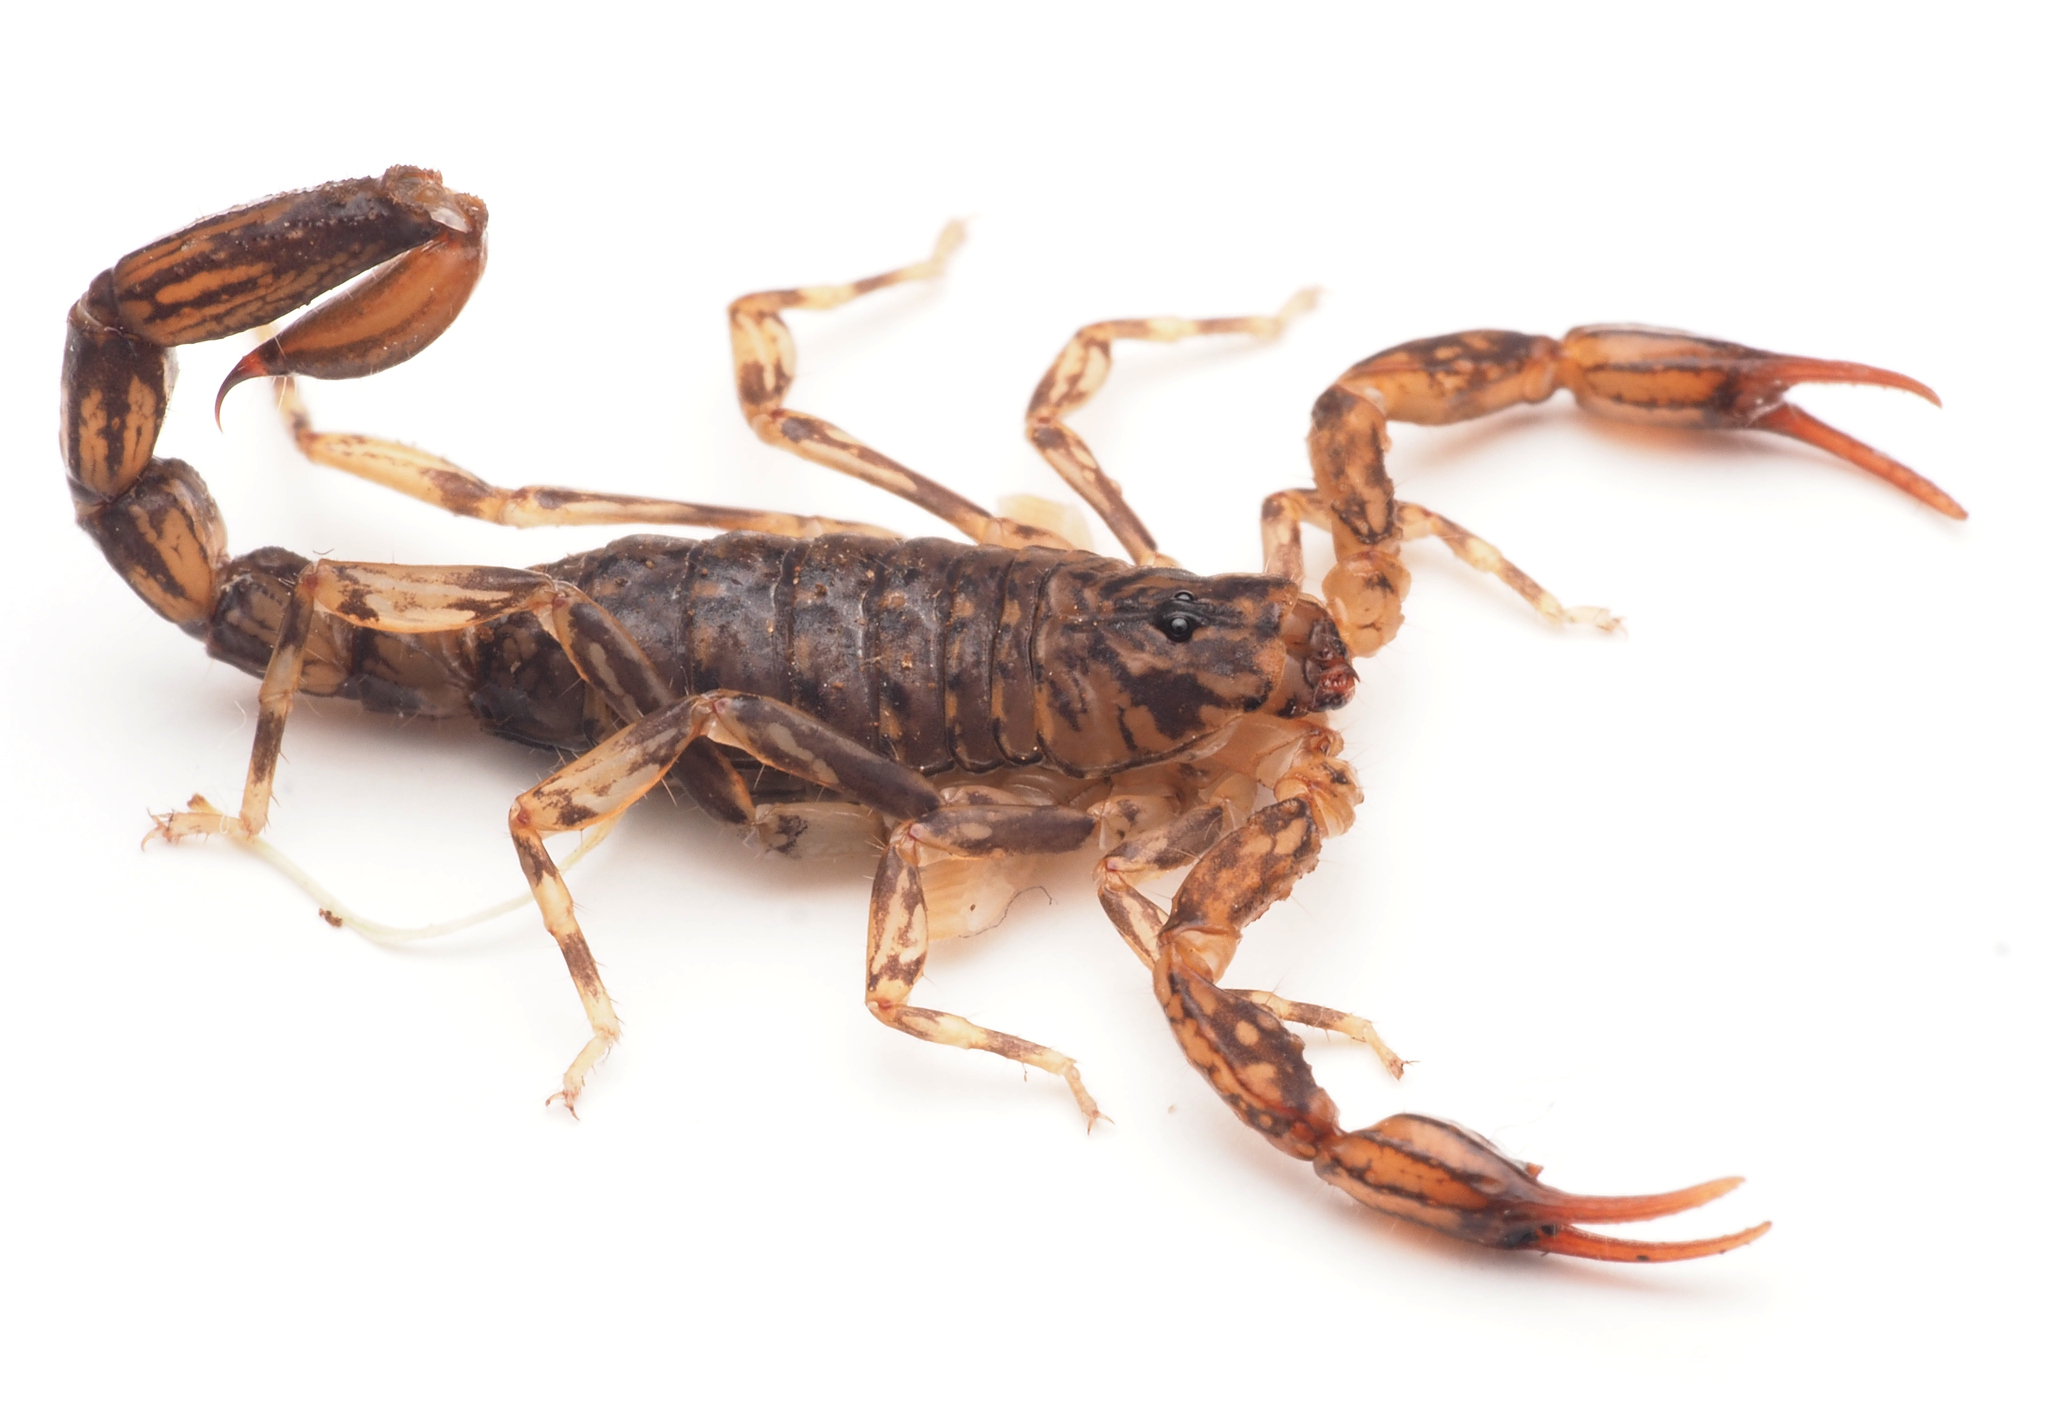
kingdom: Animalia
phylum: Arthropoda
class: Arachnida
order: Scorpiones
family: Bothriuridae
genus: Cercophonius
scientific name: Cercophonius
